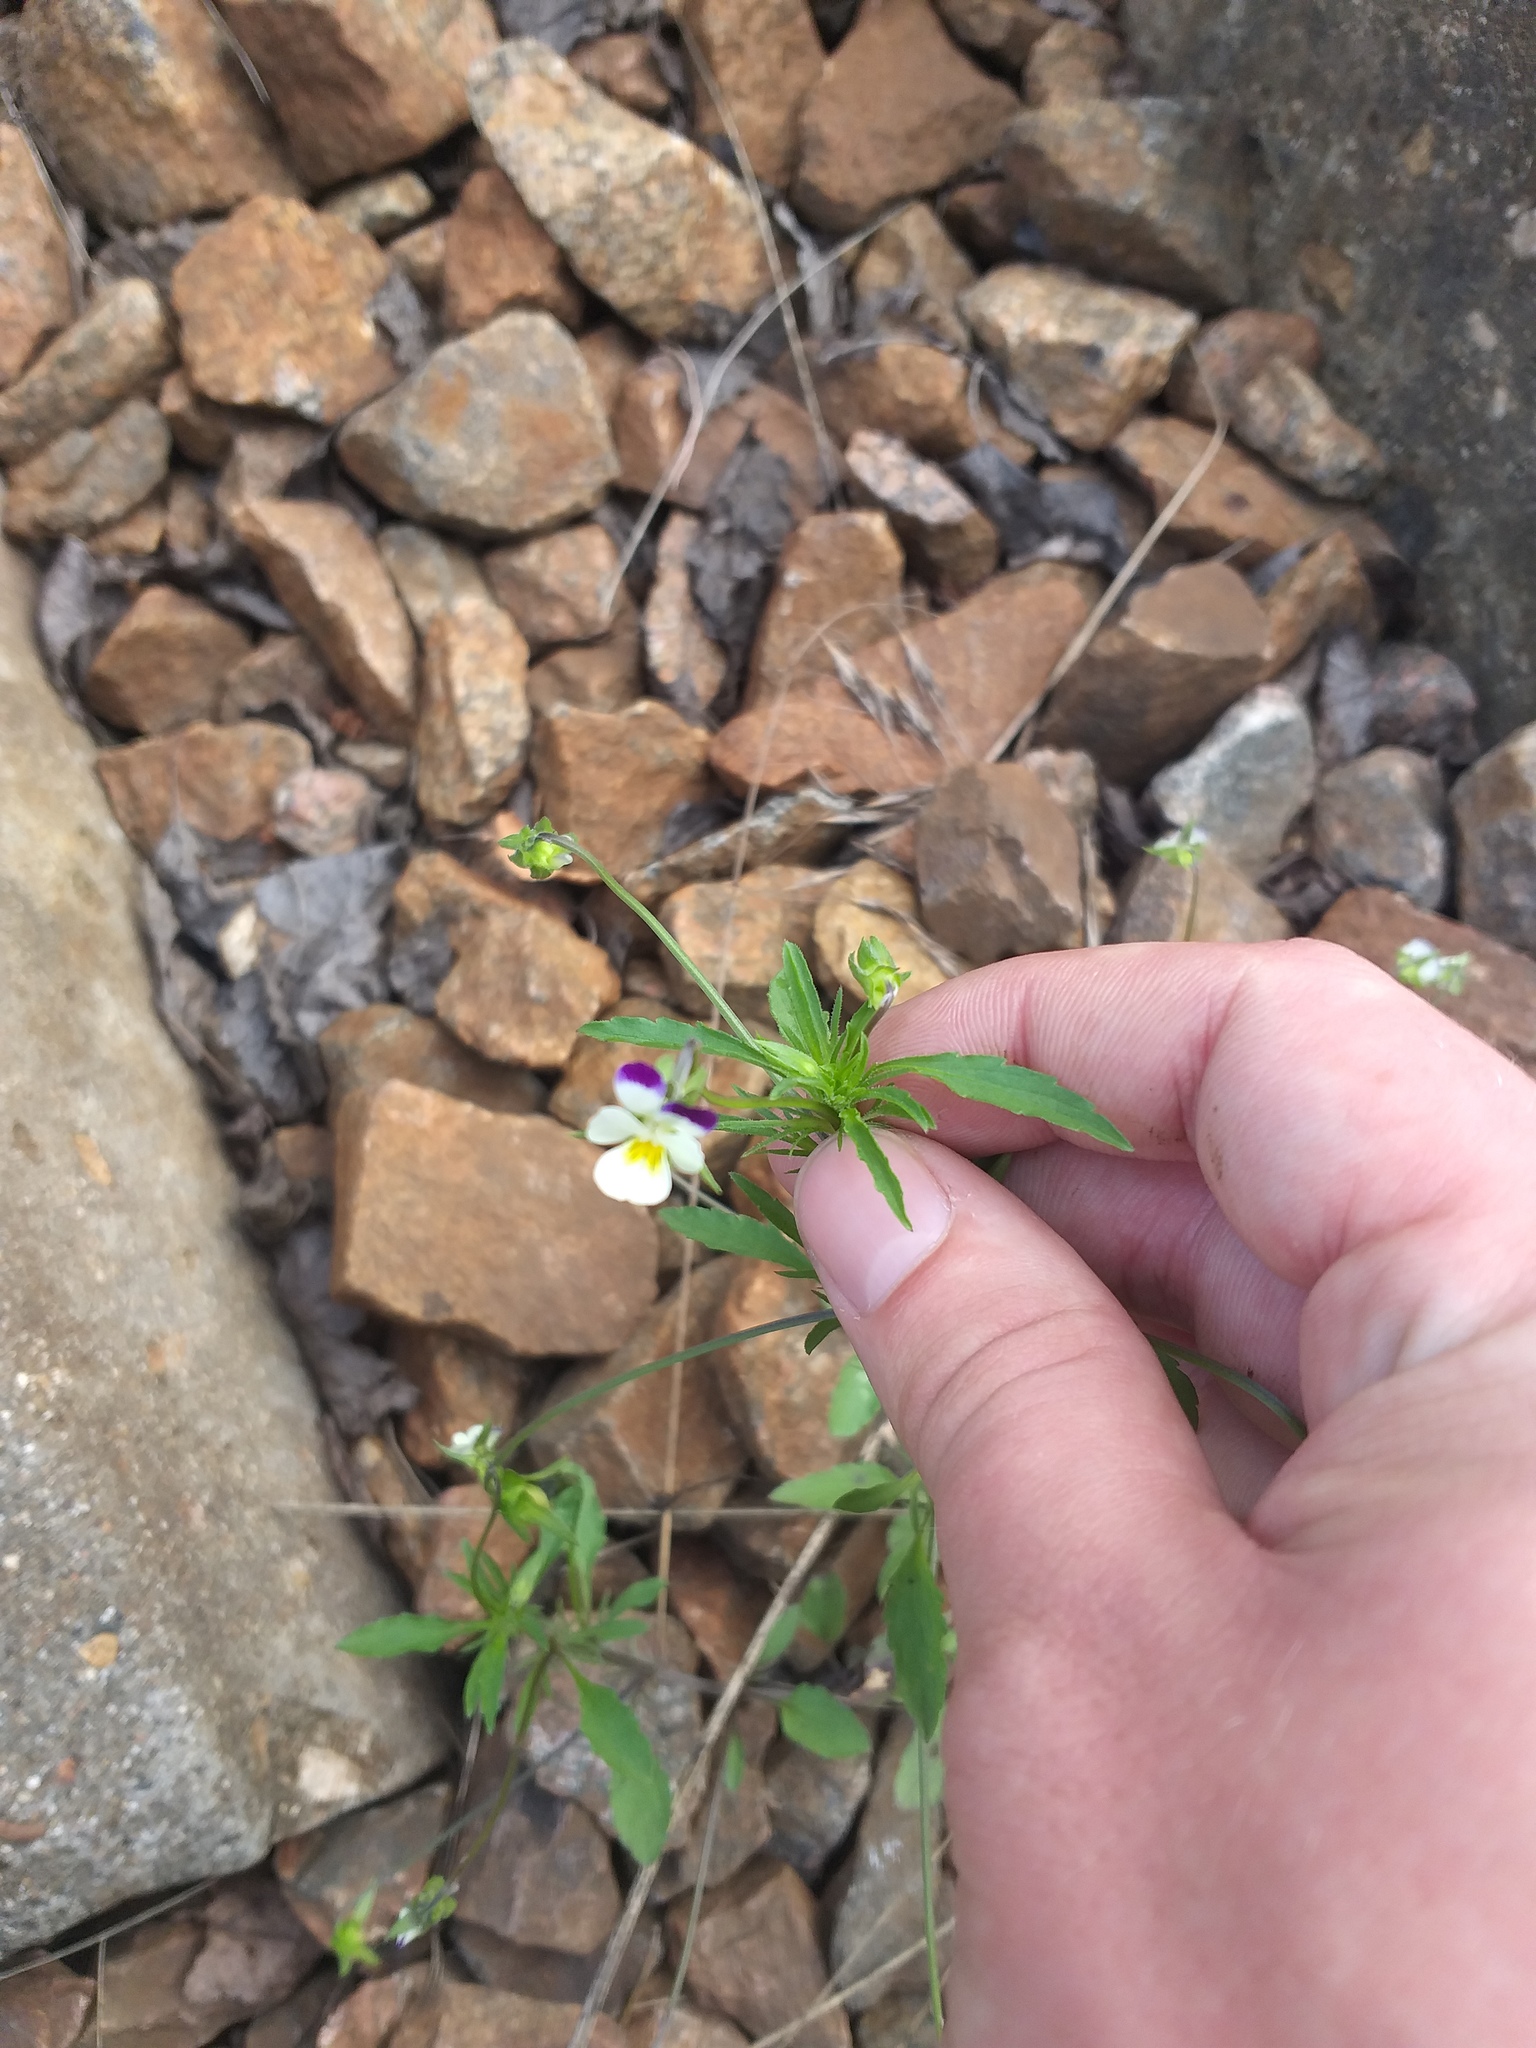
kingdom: Plantae
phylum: Tracheophyta
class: Magnoliopsida
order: Malpighiales
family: Violaceae
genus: Viola
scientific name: Viola contempta
